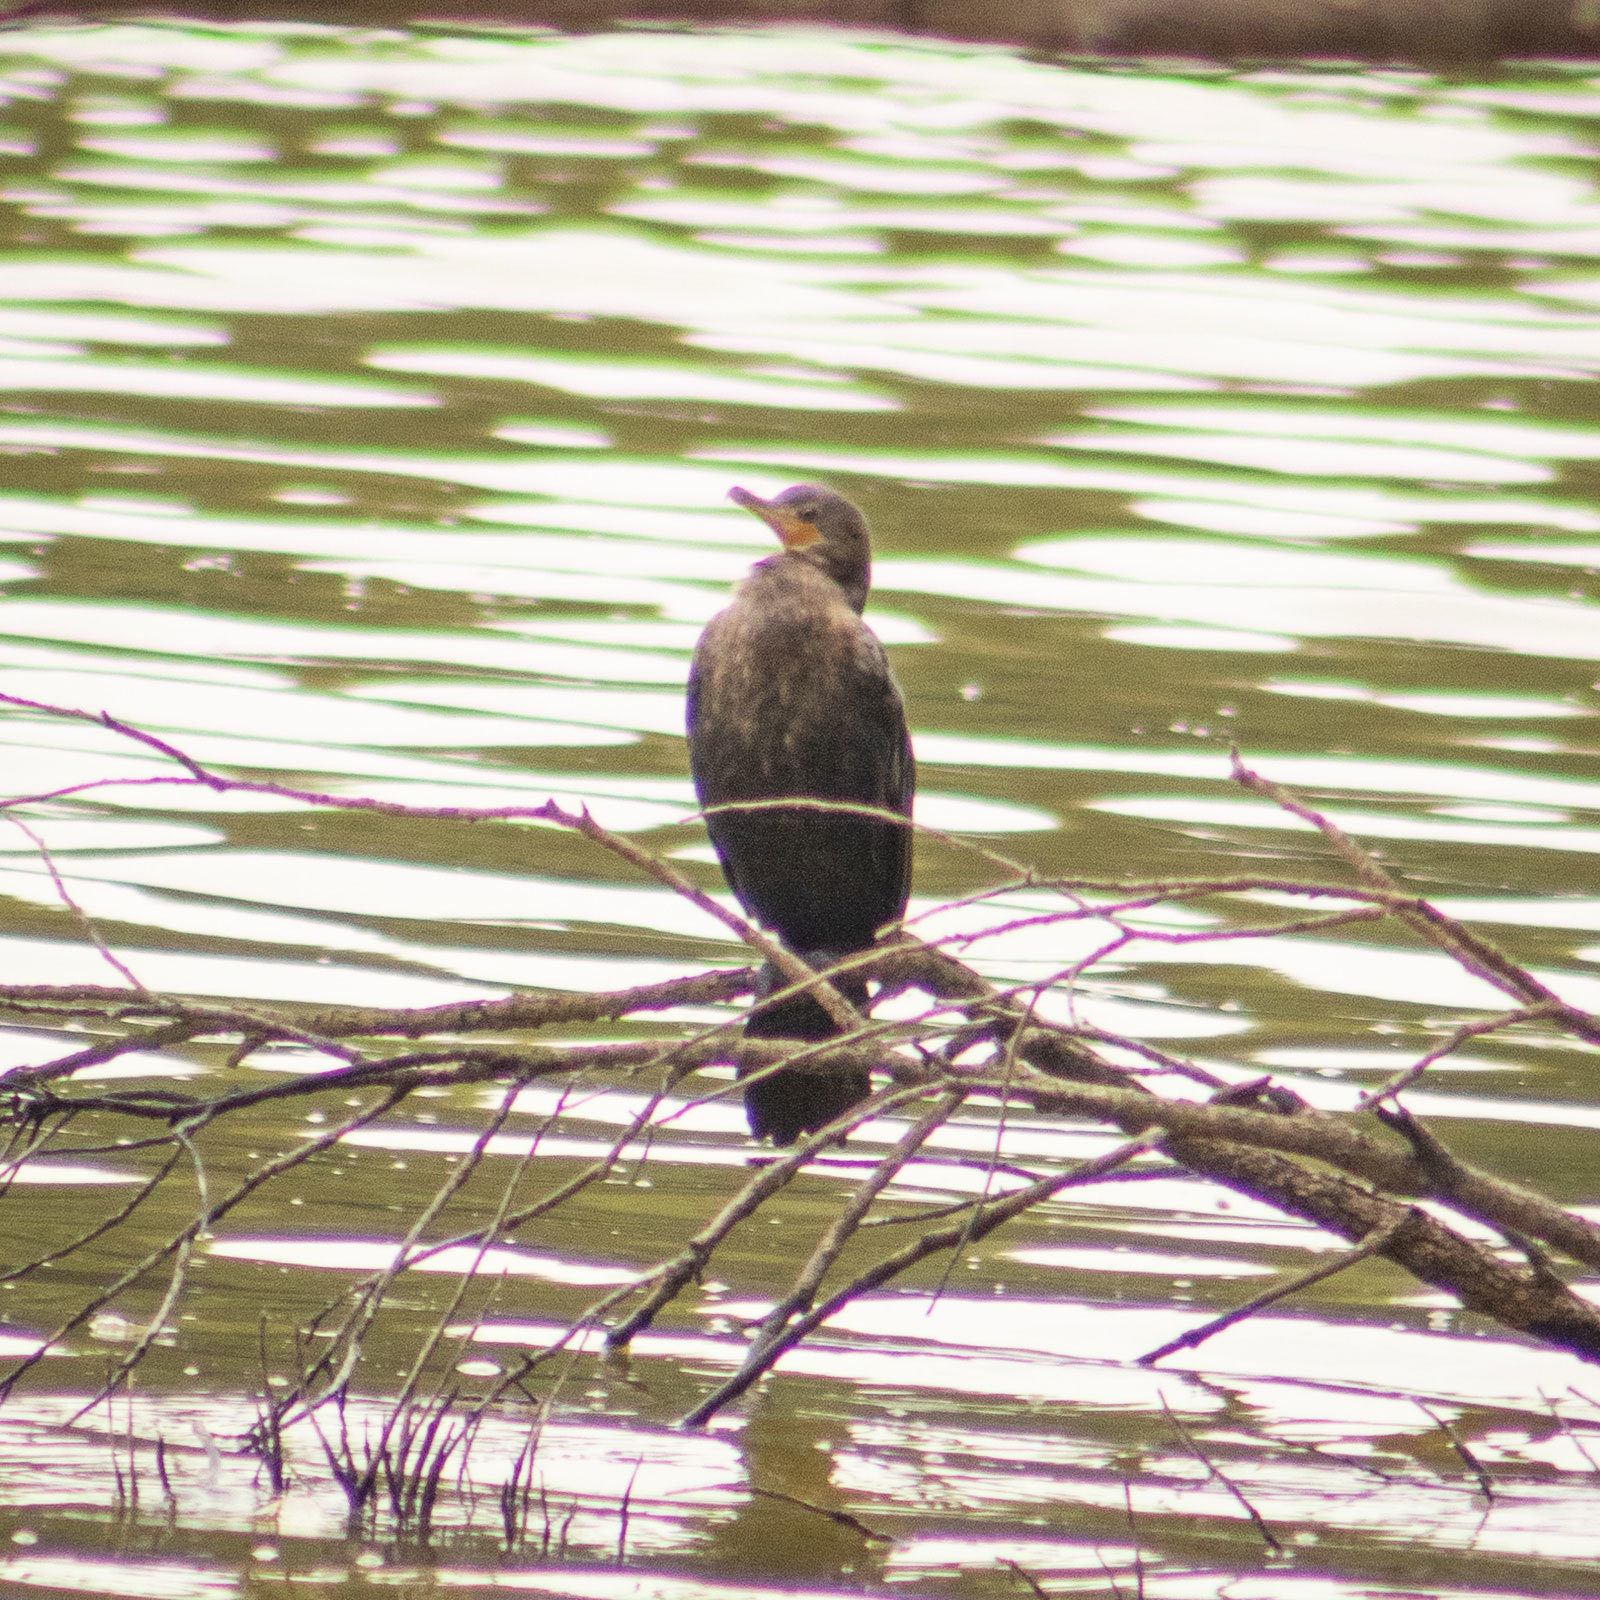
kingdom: Animalia
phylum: Chordata
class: Aves
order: Suliformes
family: Phalacrocoracidae
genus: Phalacrocorax
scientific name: Phalacrocorax brasilianus
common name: Neotropic cormorant
